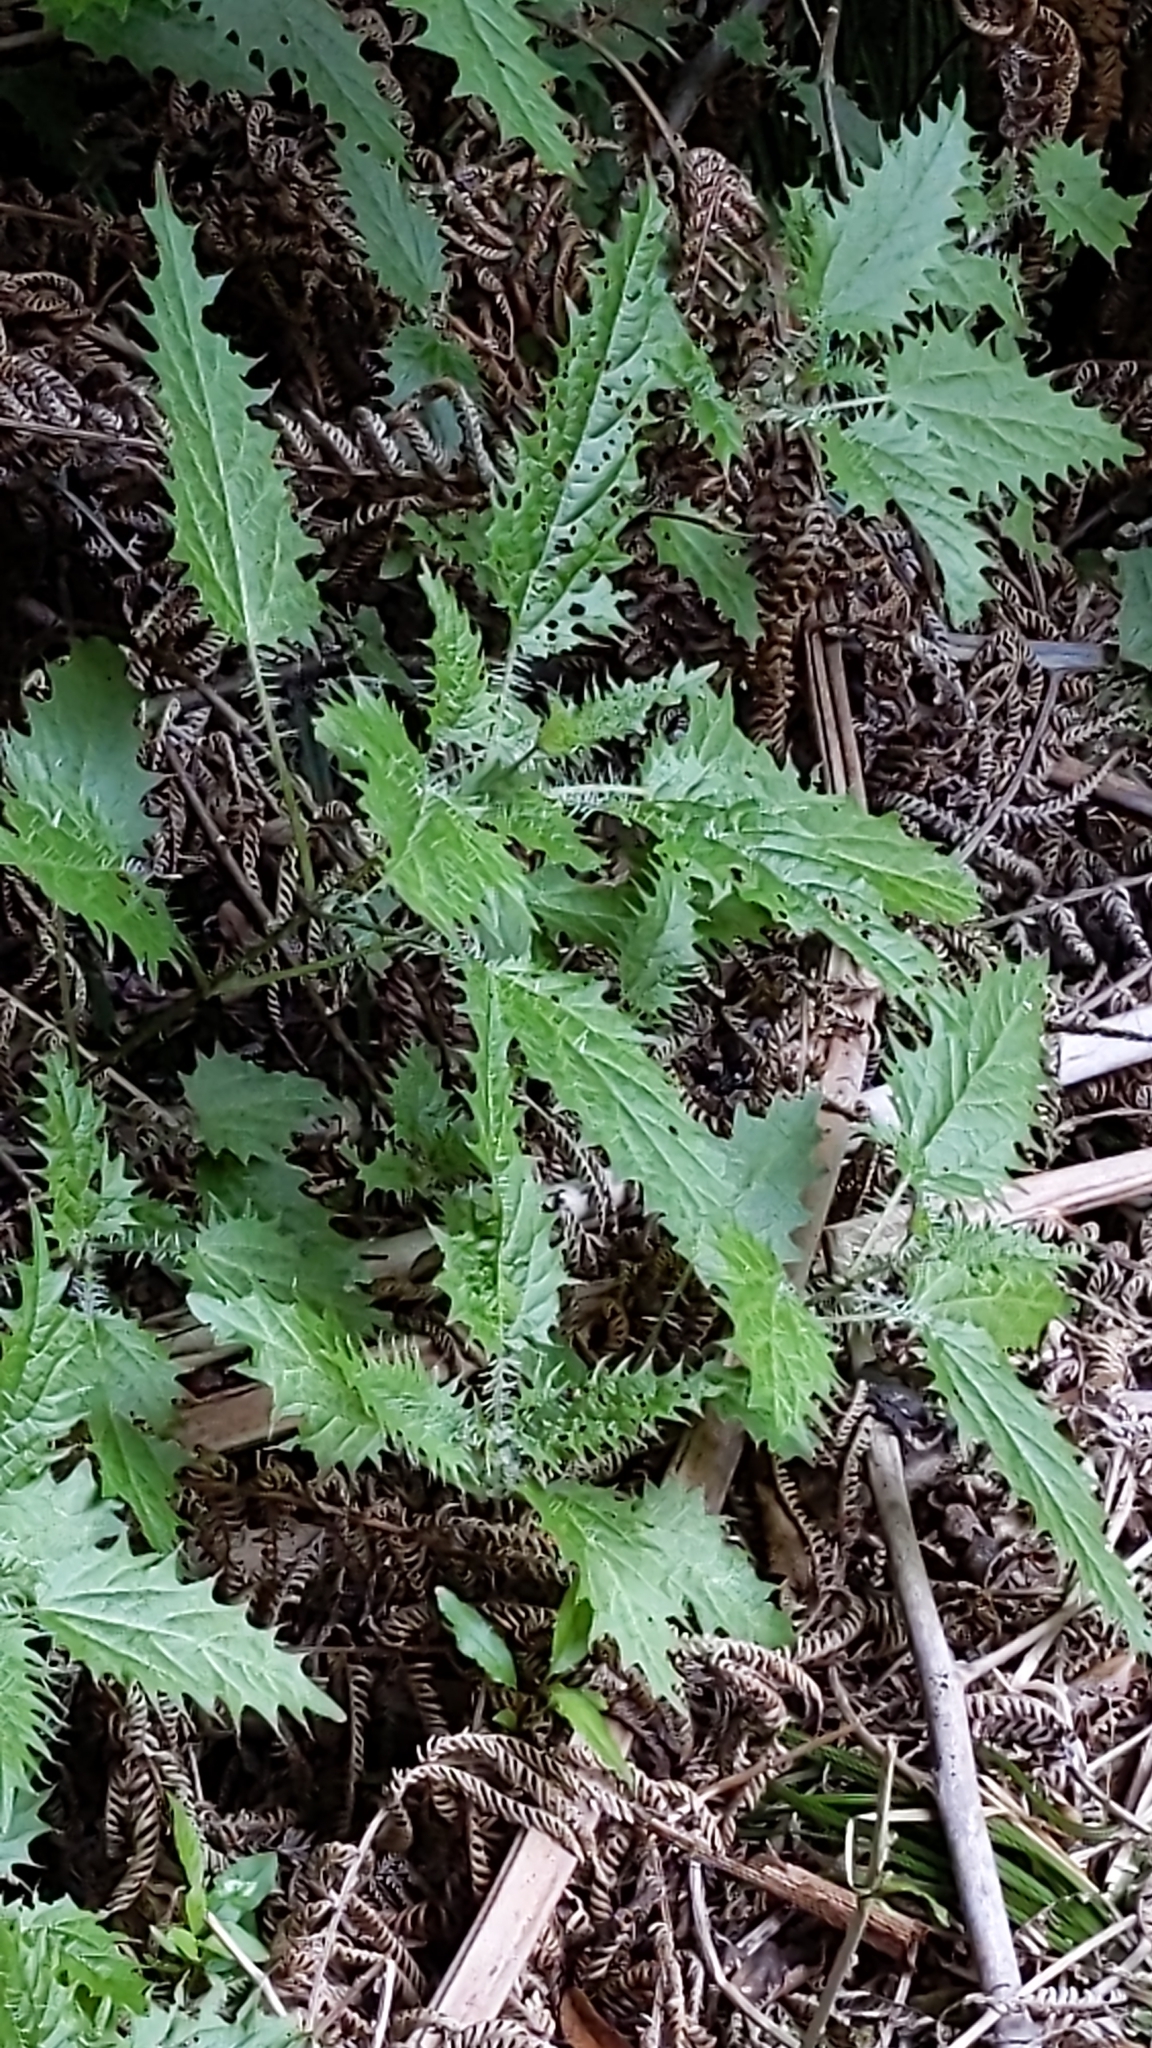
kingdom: Plantae
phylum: Tracheophyta
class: Magnoliopsida
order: Rosales
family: Urticaceae
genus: Urtica
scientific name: Urtica ferox
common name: Tree nettle
